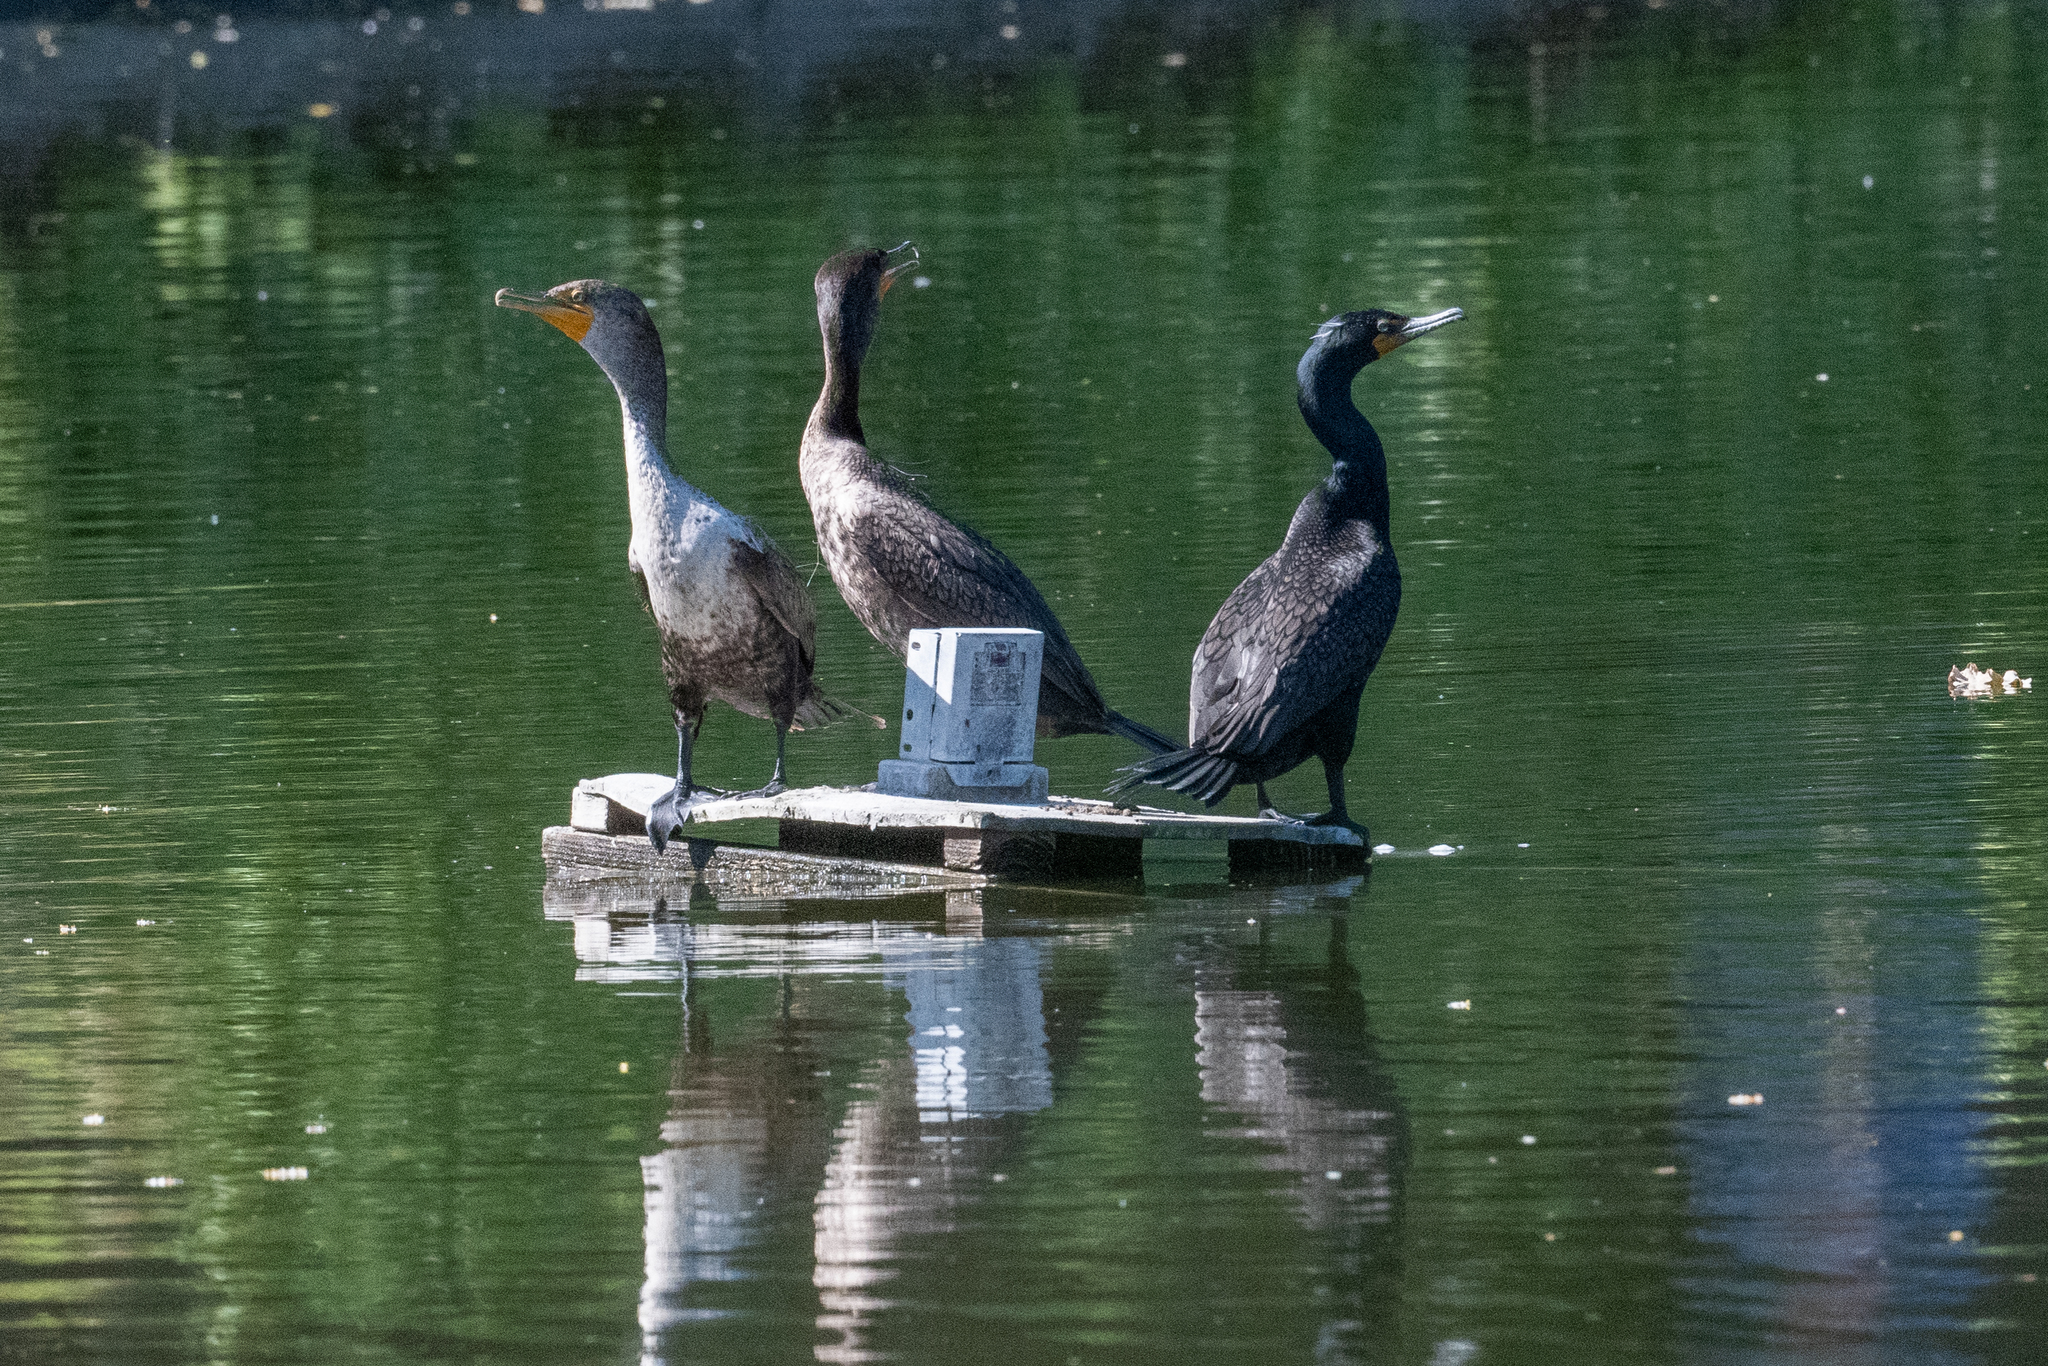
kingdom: Animalia
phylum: Chordata
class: Aves
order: Suliformes
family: Phalacrocoracidae
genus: Phalacrocorax
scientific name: Phalacrocorax auritus
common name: Double-crested cormorant
